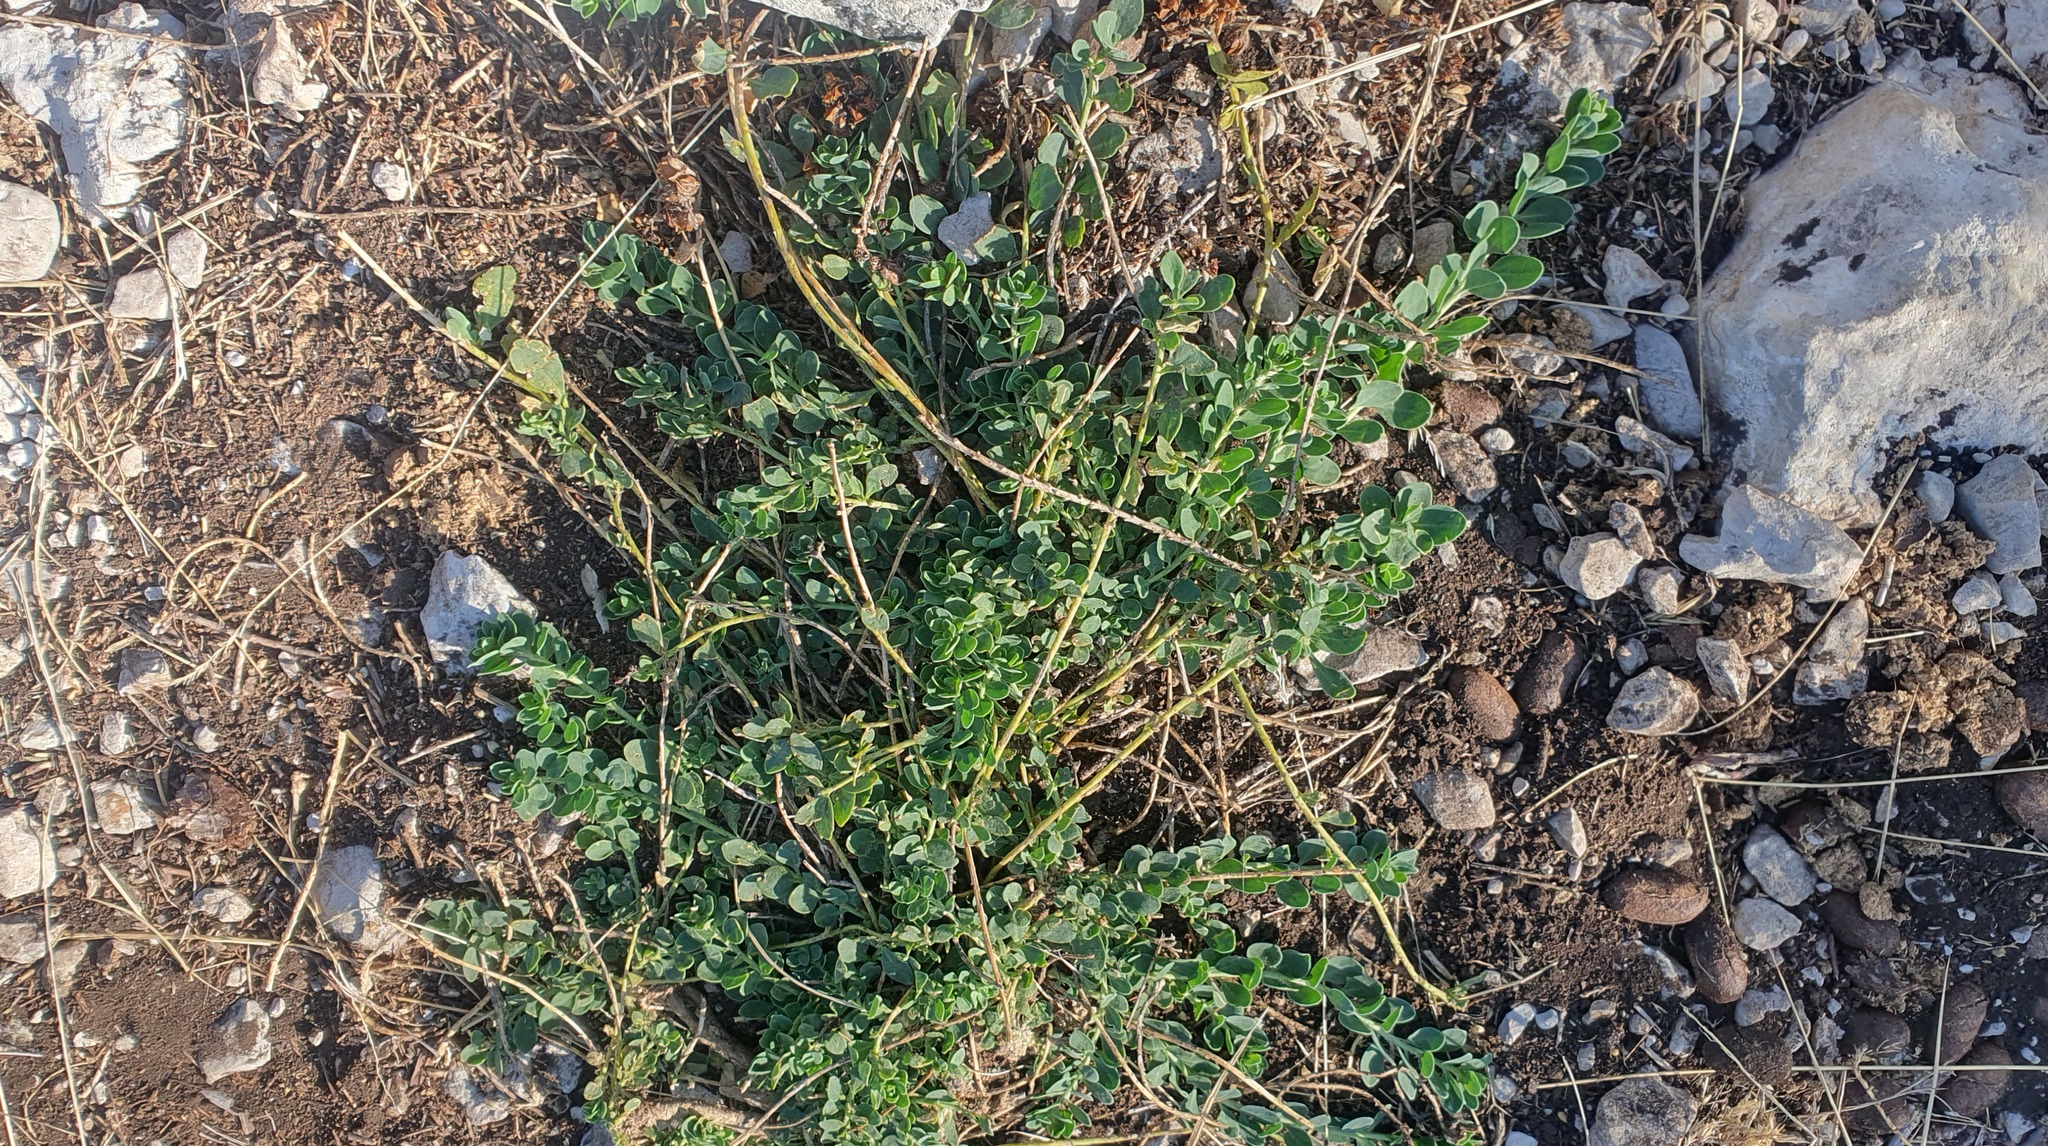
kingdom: Plantae
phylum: Tracheophyta
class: Magnoliopsida
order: Caryophyllales
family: Caryophyllaceae
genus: Telephium
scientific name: Telephium imperati
